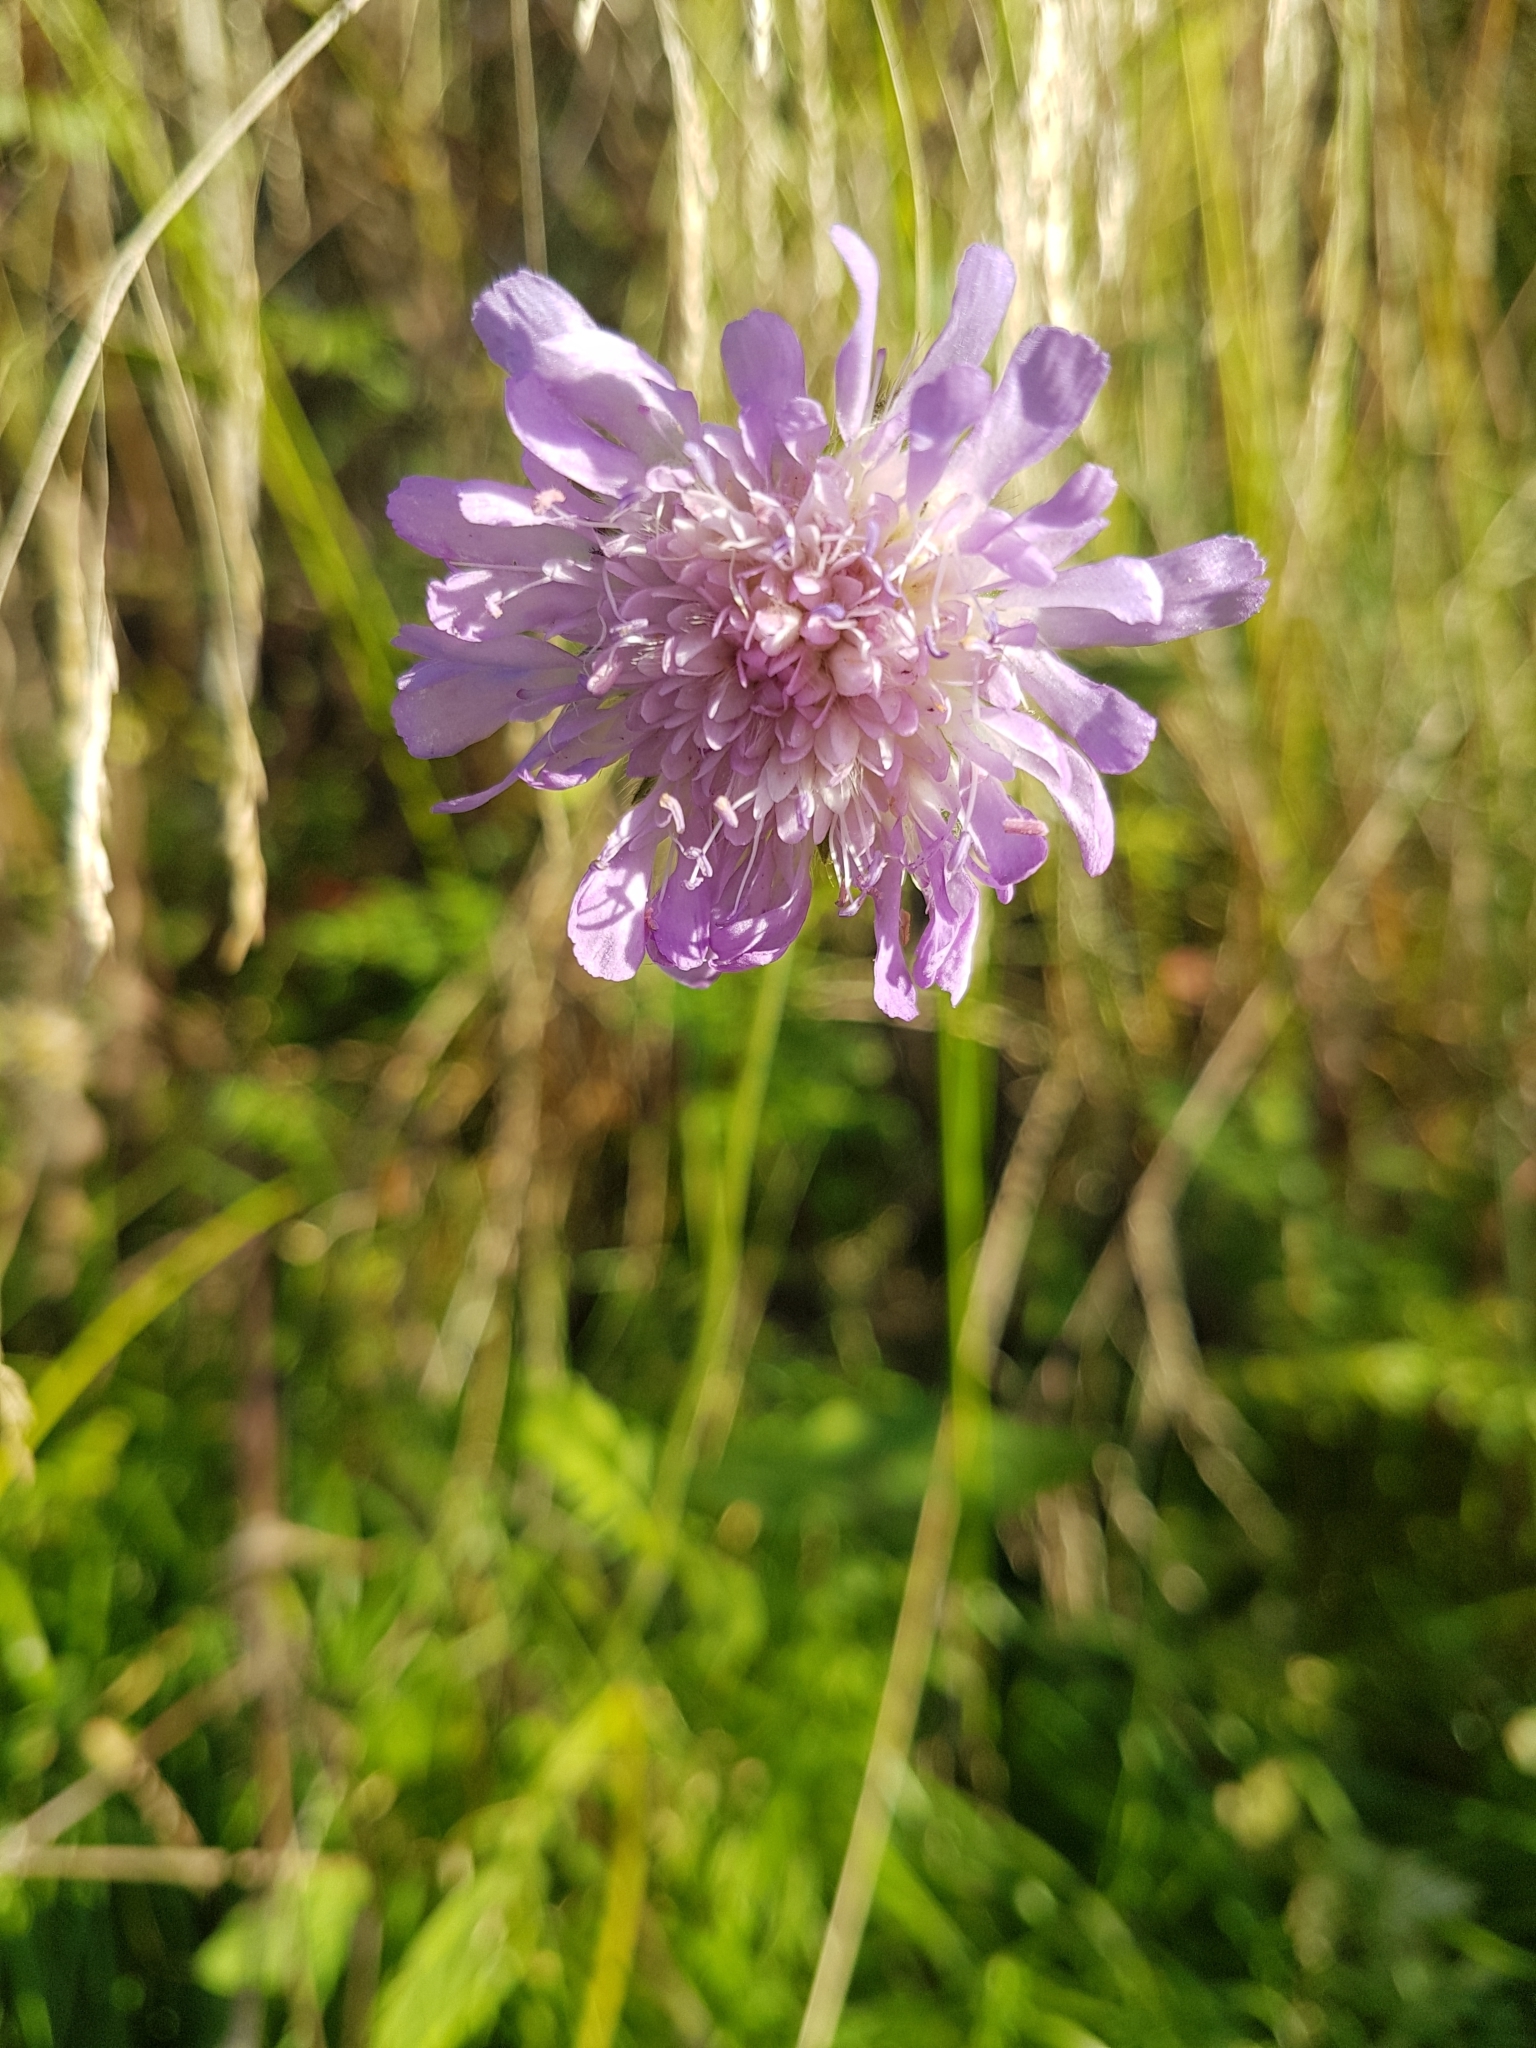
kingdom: Plantae
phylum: Tracheophyta
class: Magnoliopsida
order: Dipsacales
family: Caprifoliaceae
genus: Knautia
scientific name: Knautia arvensis
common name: Field scabiosa
